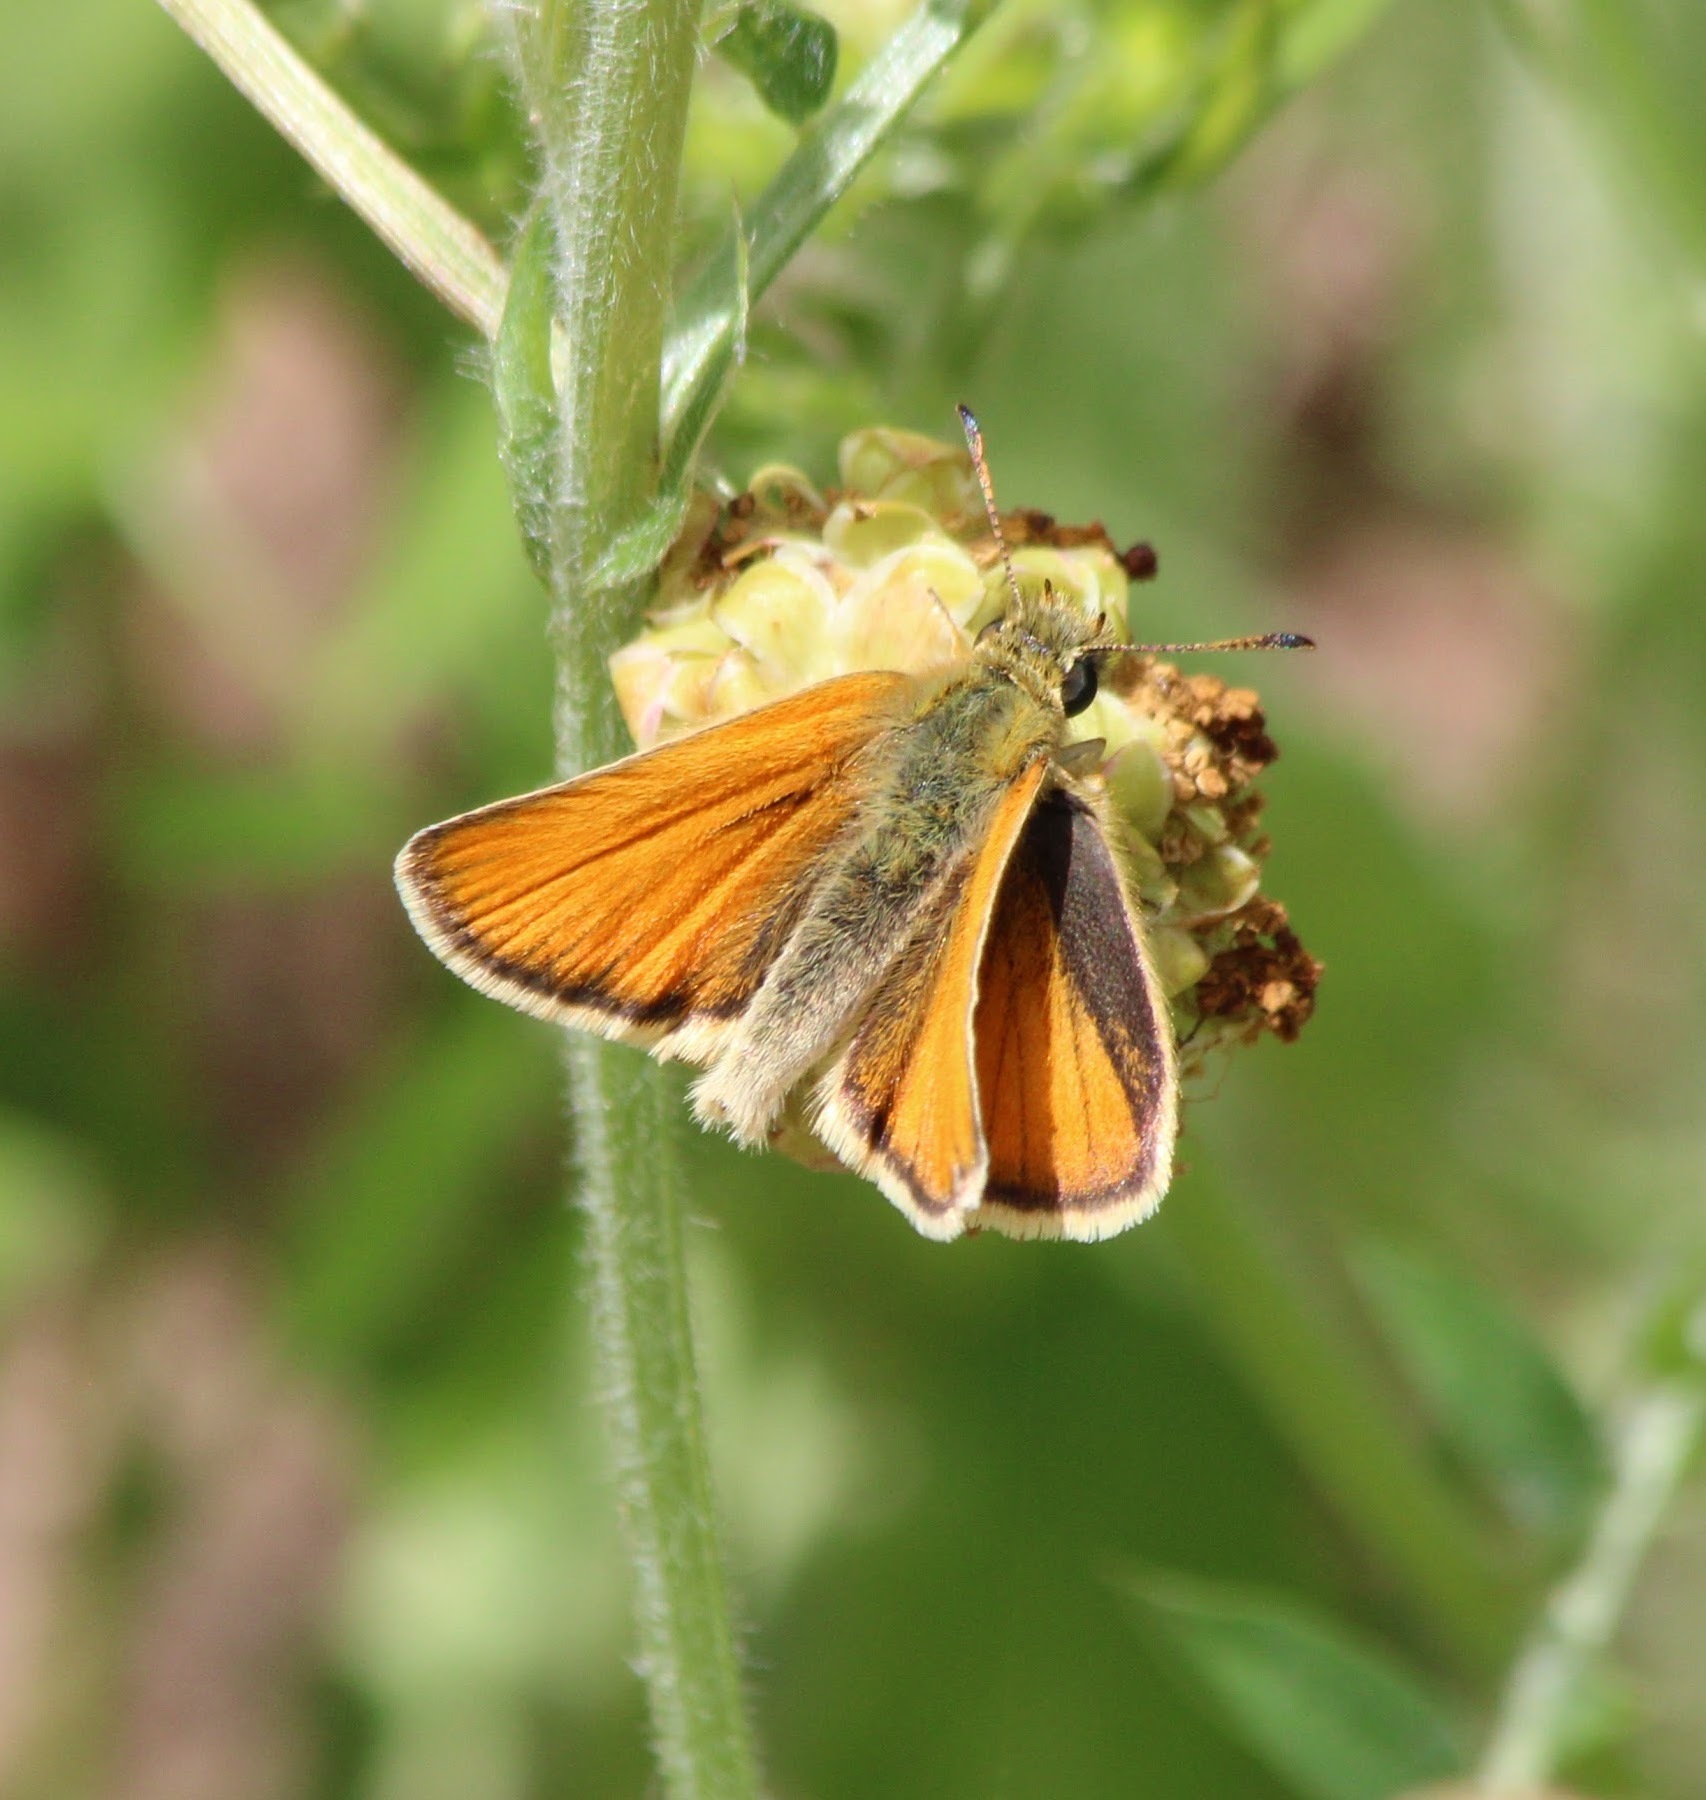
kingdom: Animalia
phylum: Arthropoda
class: Insecta
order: Lepidoptera
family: Hesperiidae
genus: Thymelicus
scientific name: Thymelicus lineola
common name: Essex skipper
